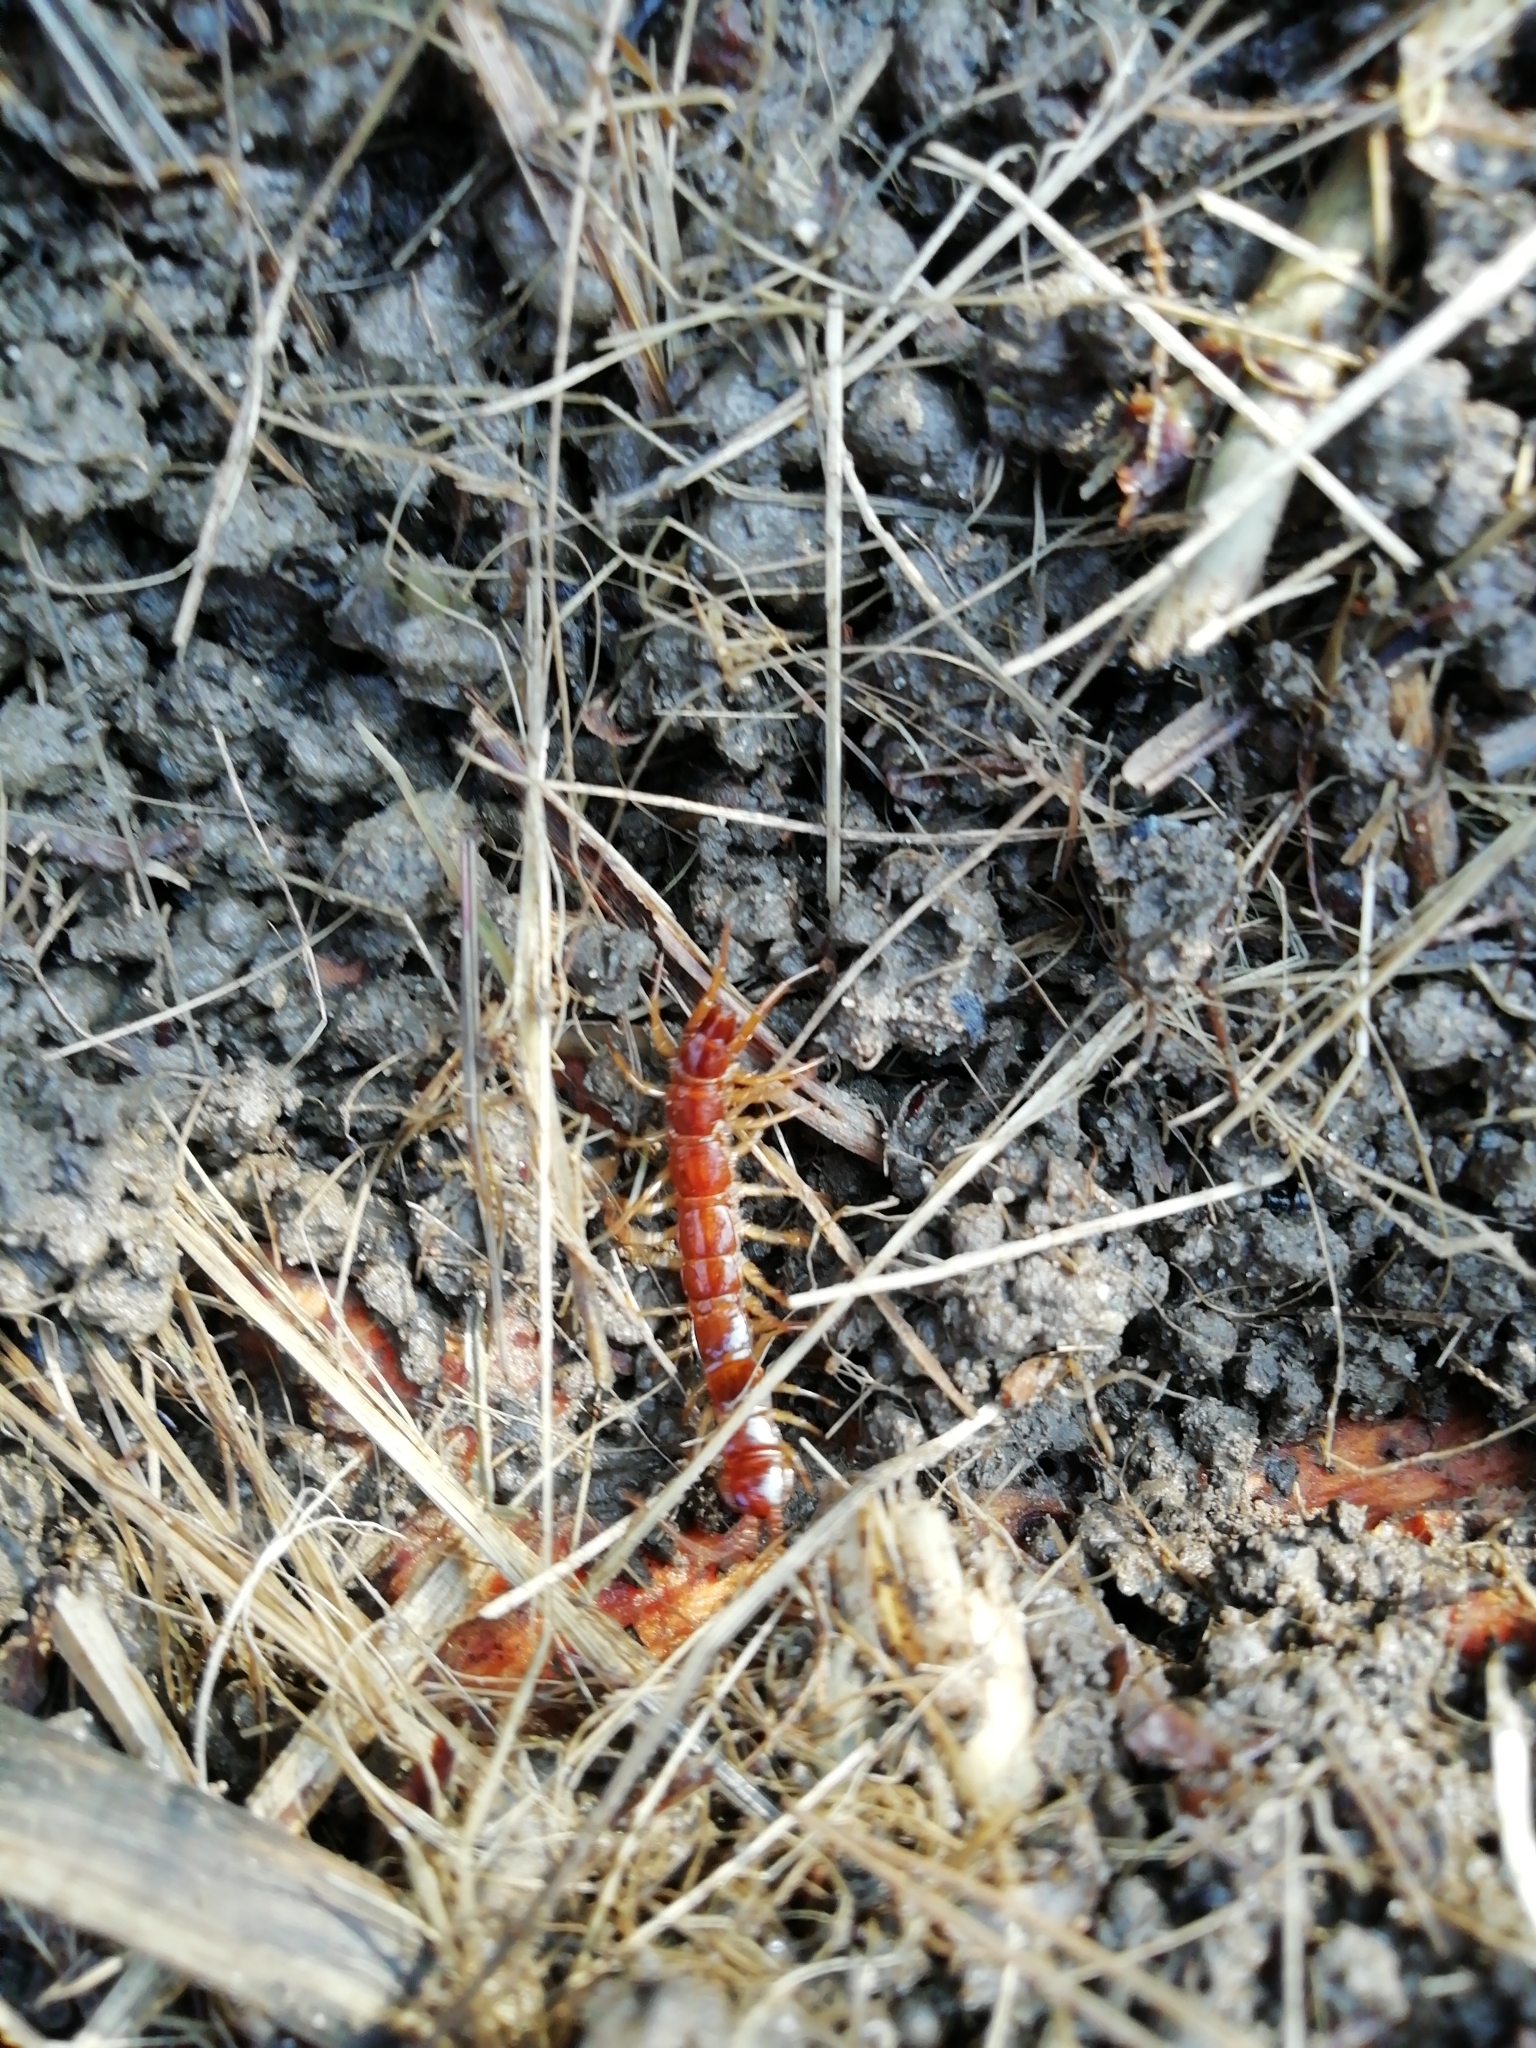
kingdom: Animalia
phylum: Arthropoda
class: Chilopoda
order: Lithobiomorpha
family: Lithobiidae
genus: Lithobius
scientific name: Lithobius forficatus
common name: Centipede
